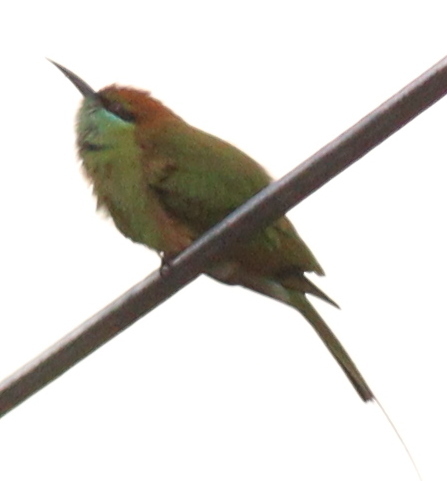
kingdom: Animalia
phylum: Chordata
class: Aves
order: Coraciiformes
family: Meropidae
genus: Merops
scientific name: Merops orientalis
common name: Green bee-eater
